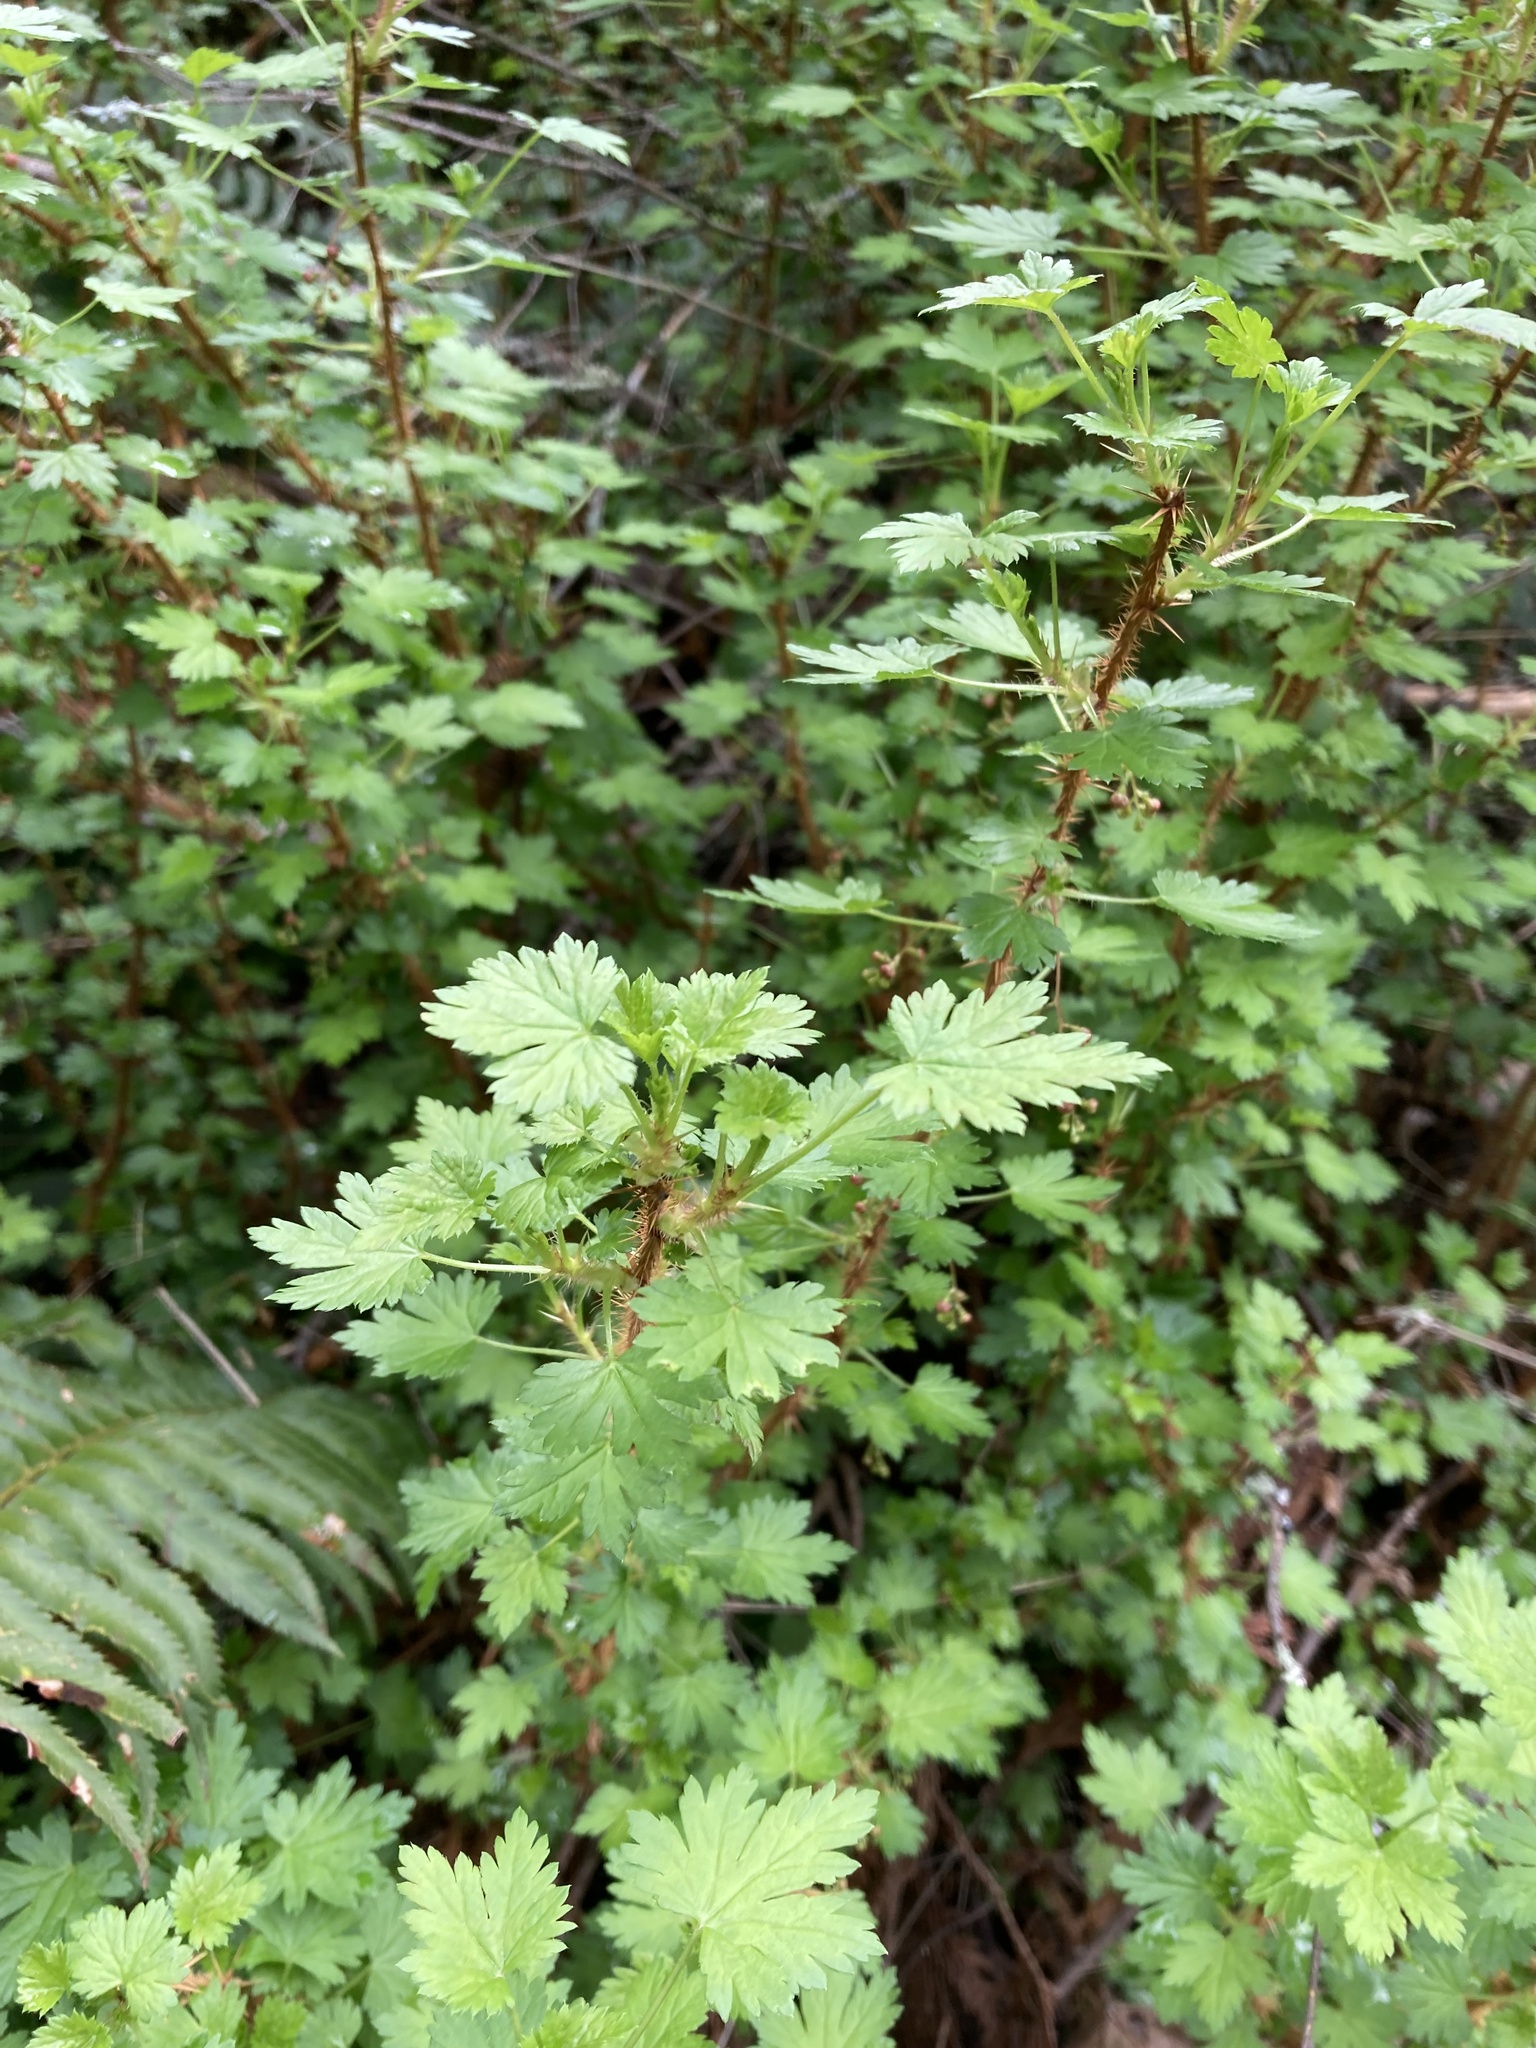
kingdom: Plantae
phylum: Tracheophyta
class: Magnoliopsida
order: Saxifragales
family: Grossulariaceae
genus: Ribes
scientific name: Ribes lacustre
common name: Black gooseberry
